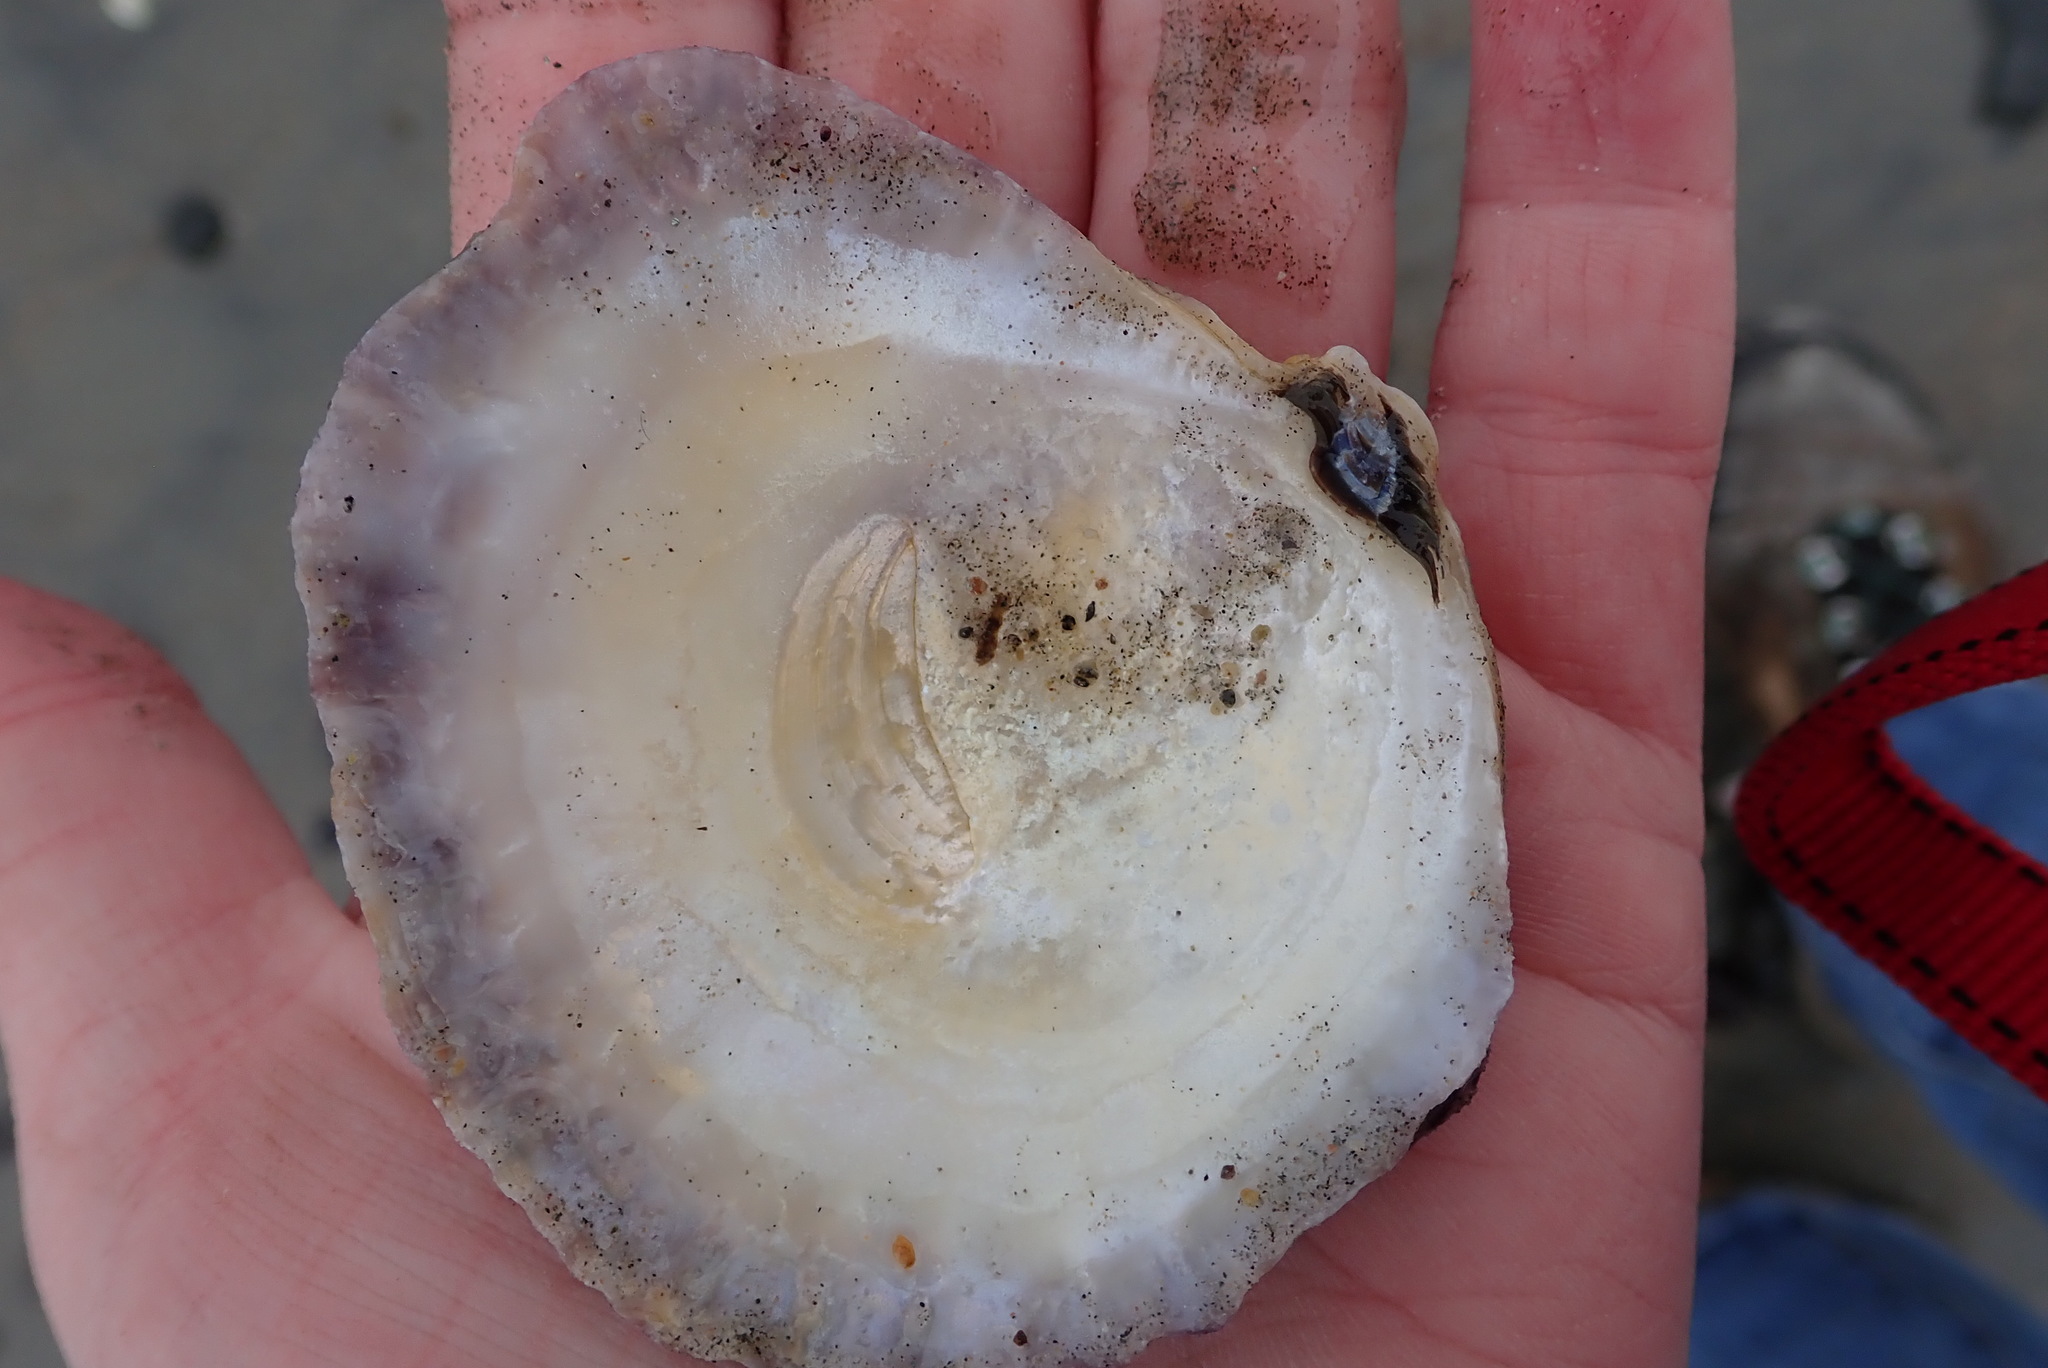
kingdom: Animalia
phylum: Mollusca
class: Bivalvia
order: Ostreida
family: Ostreidae
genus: Ostrea
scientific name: Ostrea edulis
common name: Flat oyster
